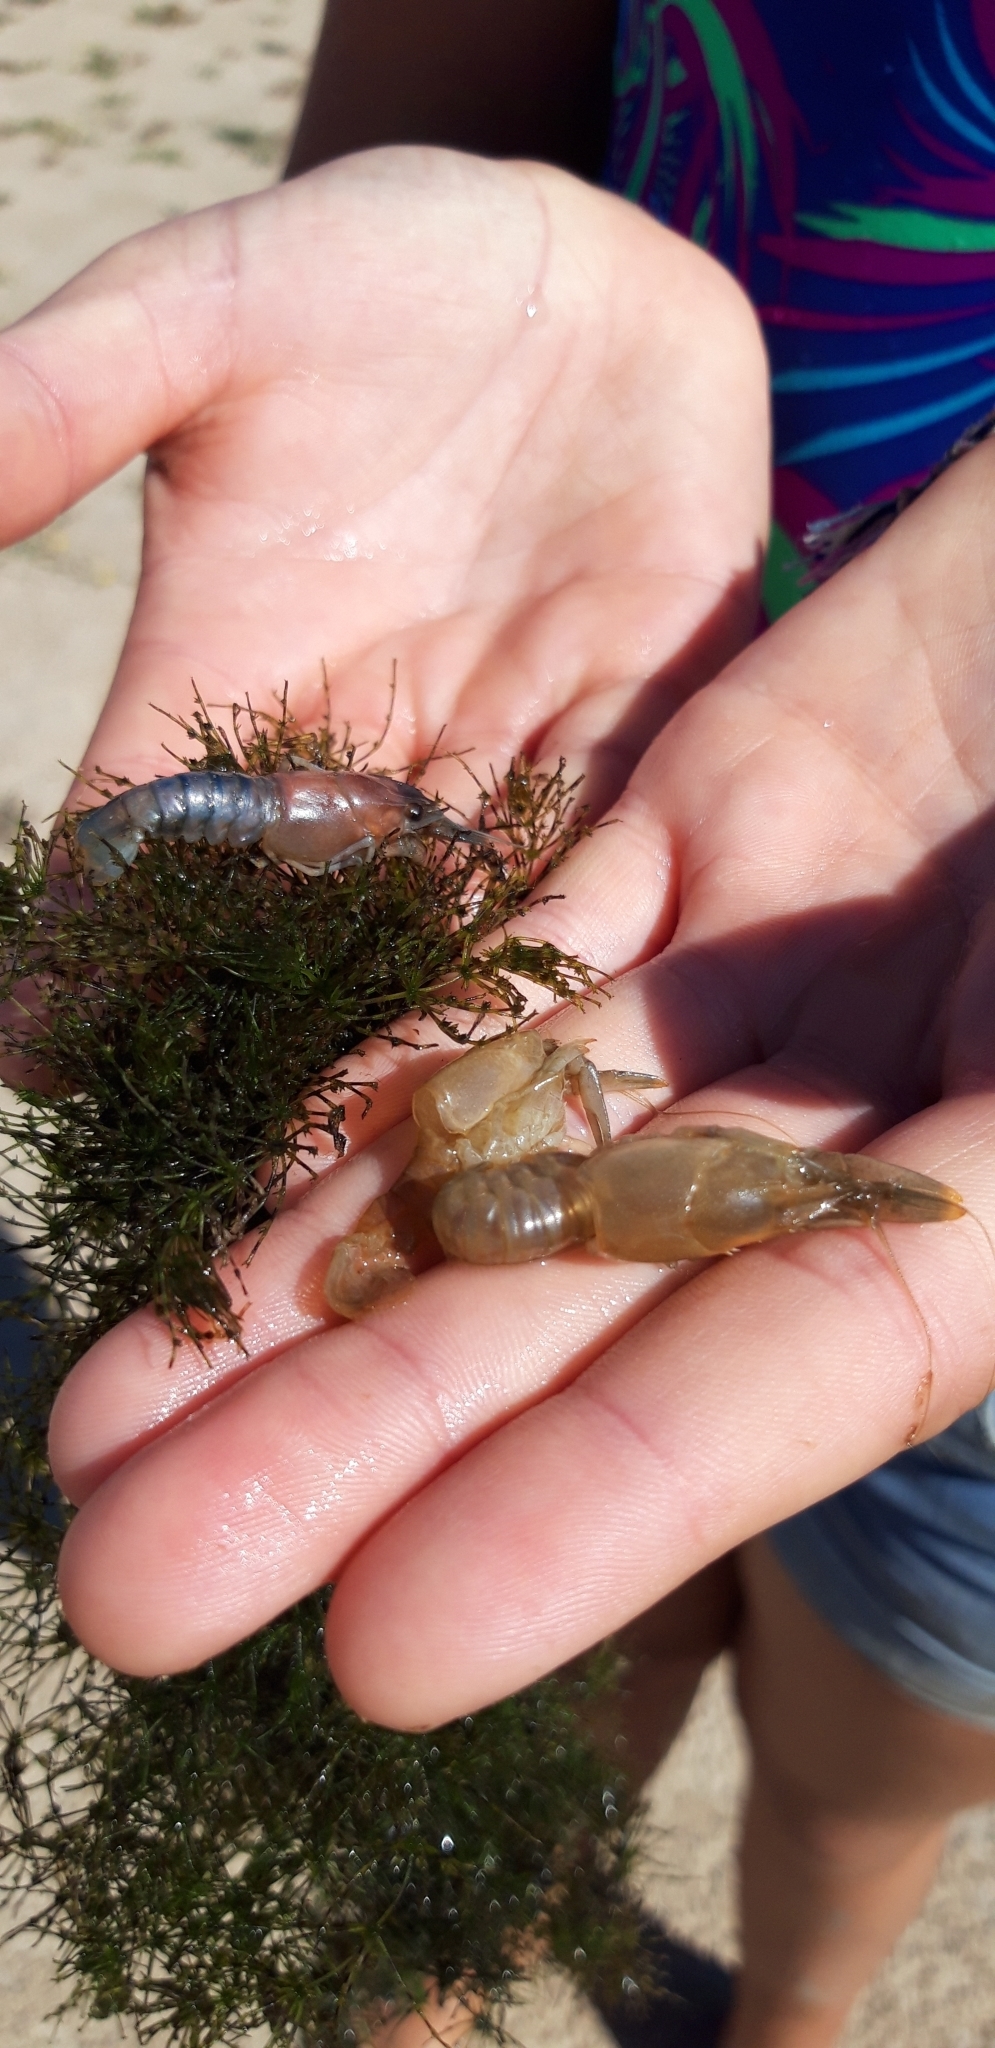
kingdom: Animalia
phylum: Arthropoda
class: Malacostraca
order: Decapoda
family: Cambaridae
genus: Procambarus
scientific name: Procambarus clarkii
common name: Red swamp crayfish
